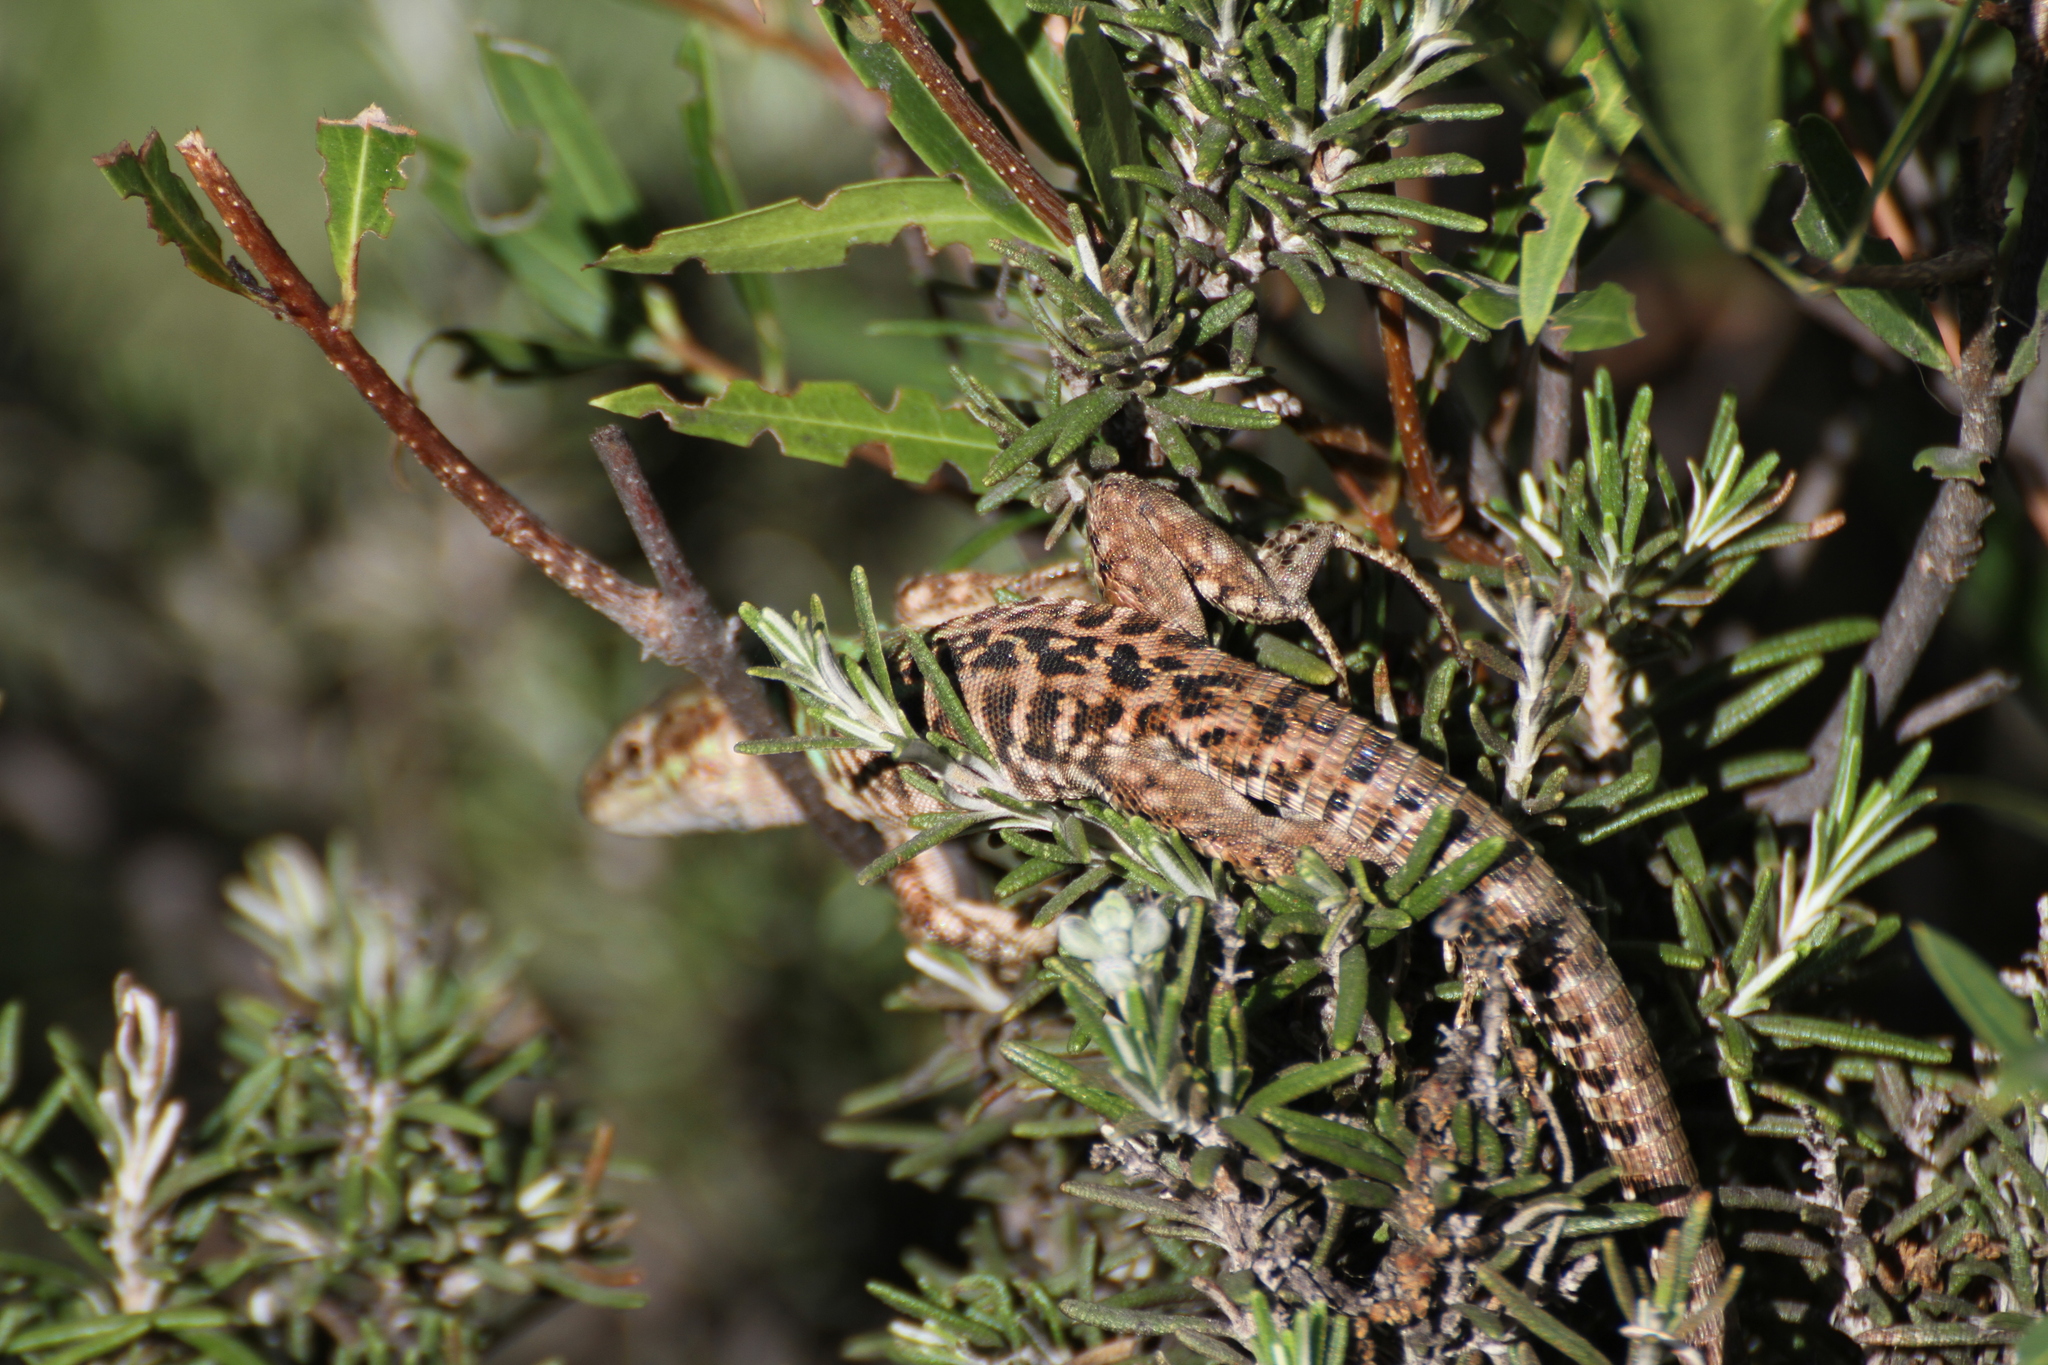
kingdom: Animalia
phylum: Chordata
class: Squamata
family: Lacertidae
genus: Podarcis
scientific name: Podarcis siculus
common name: Italian wall lizard
